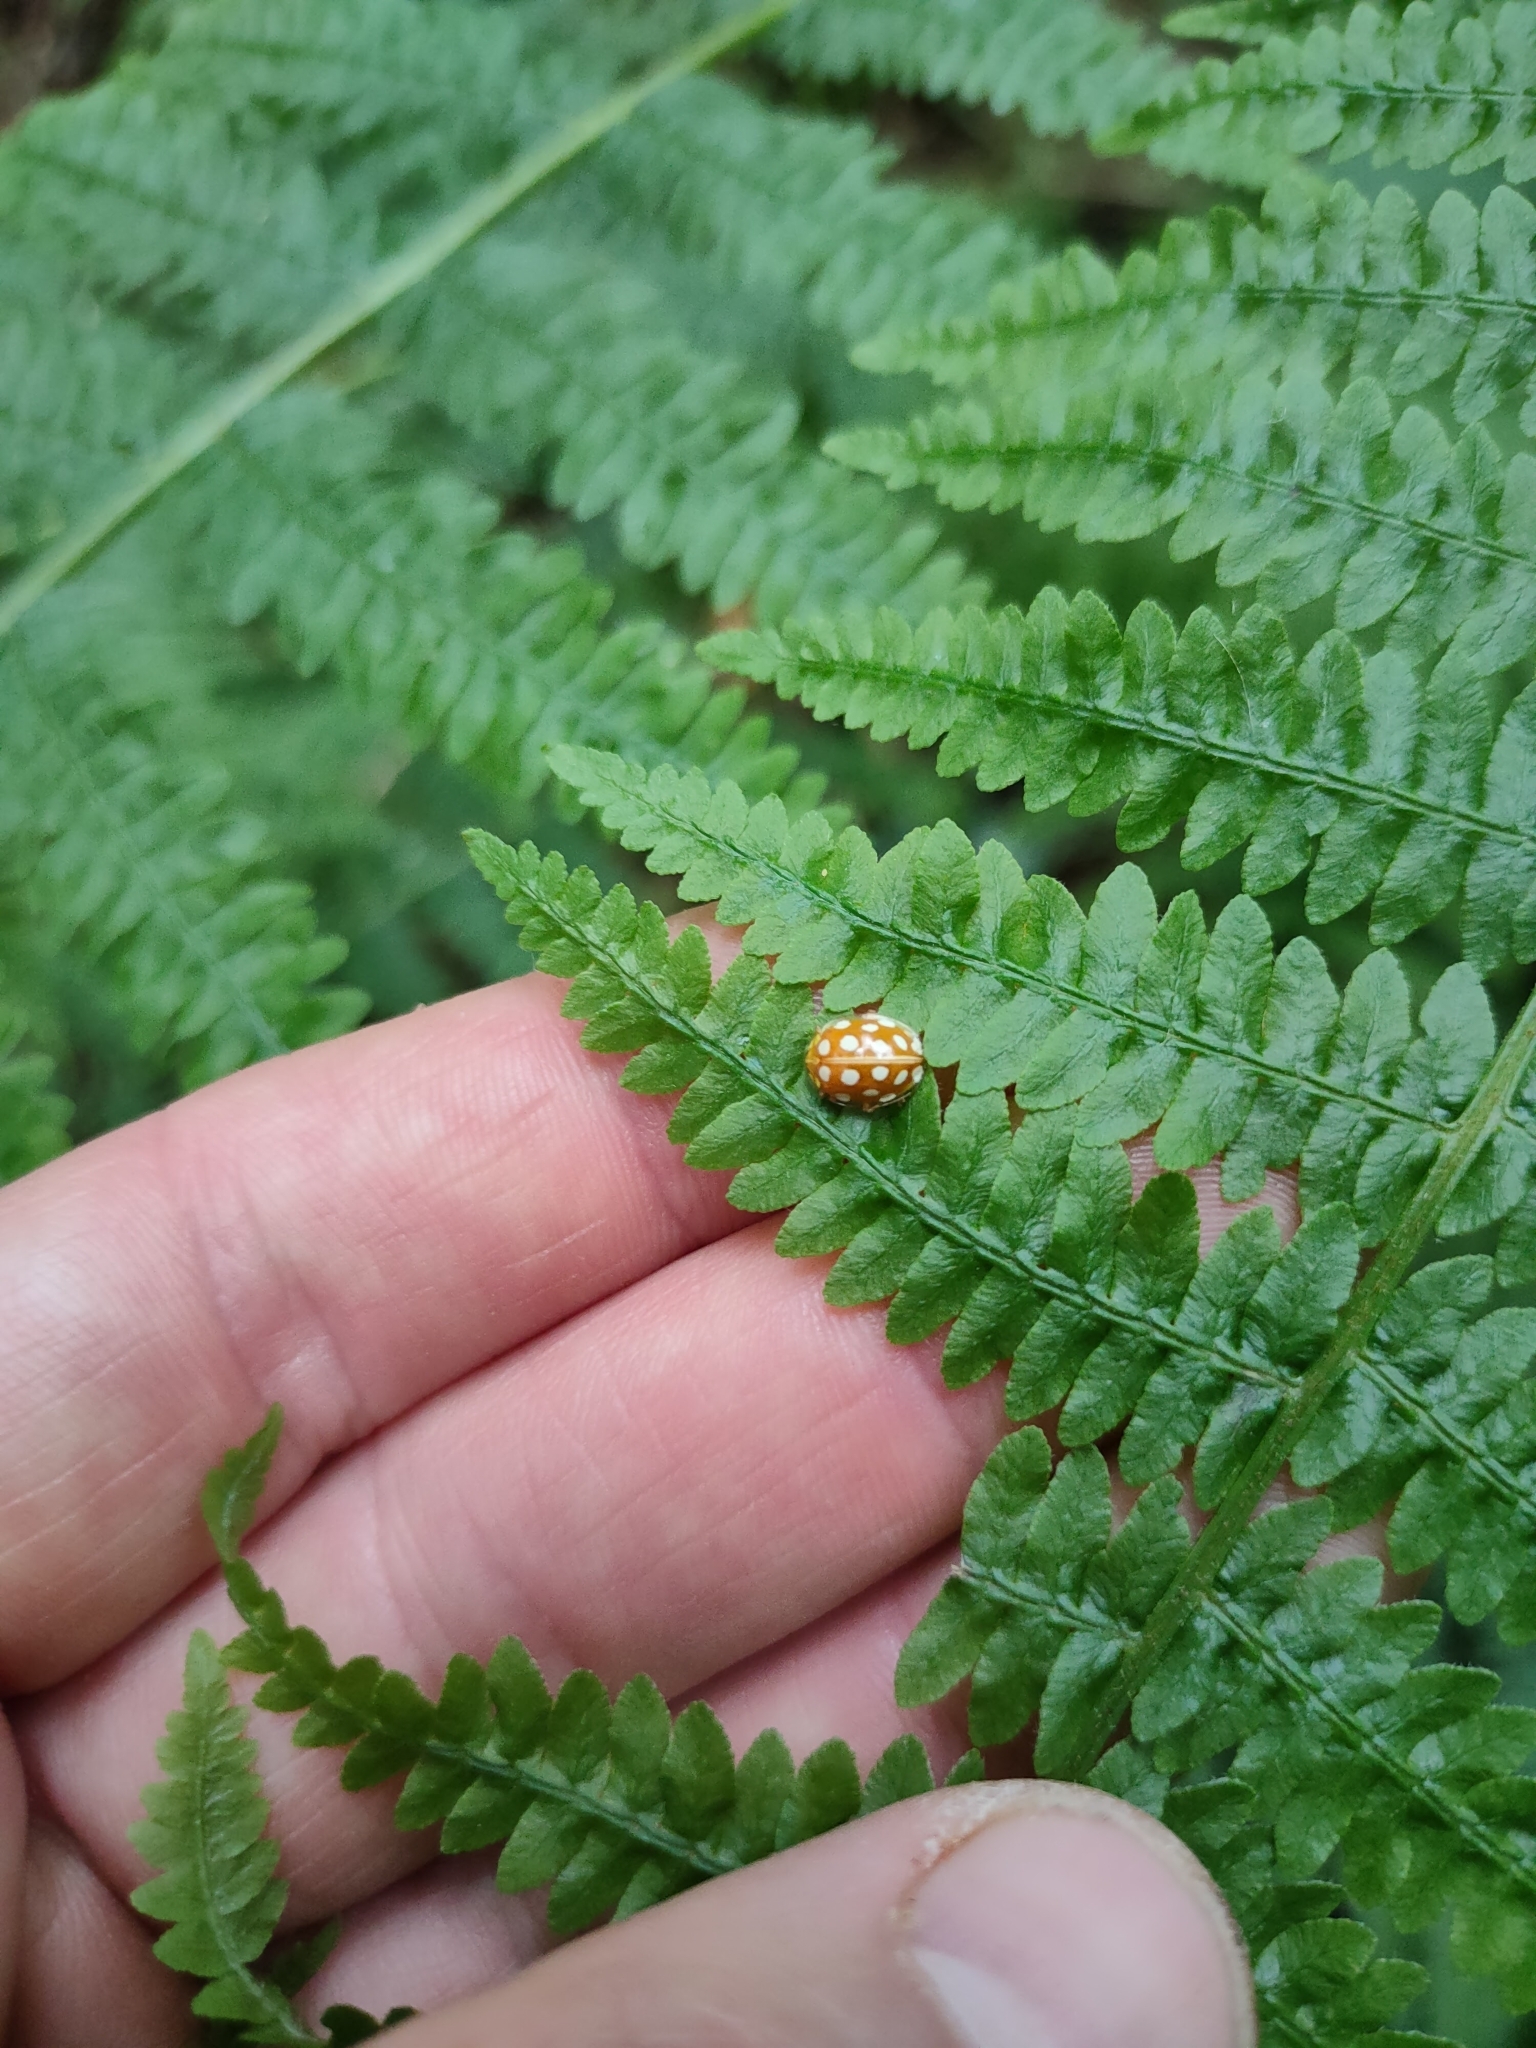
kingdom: Animalia
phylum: Arthropoda
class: Insecta
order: Coleoptera
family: Coccinellidae
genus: Halyzia
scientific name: Halyzia sedecimguttata
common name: Orange ladybird
